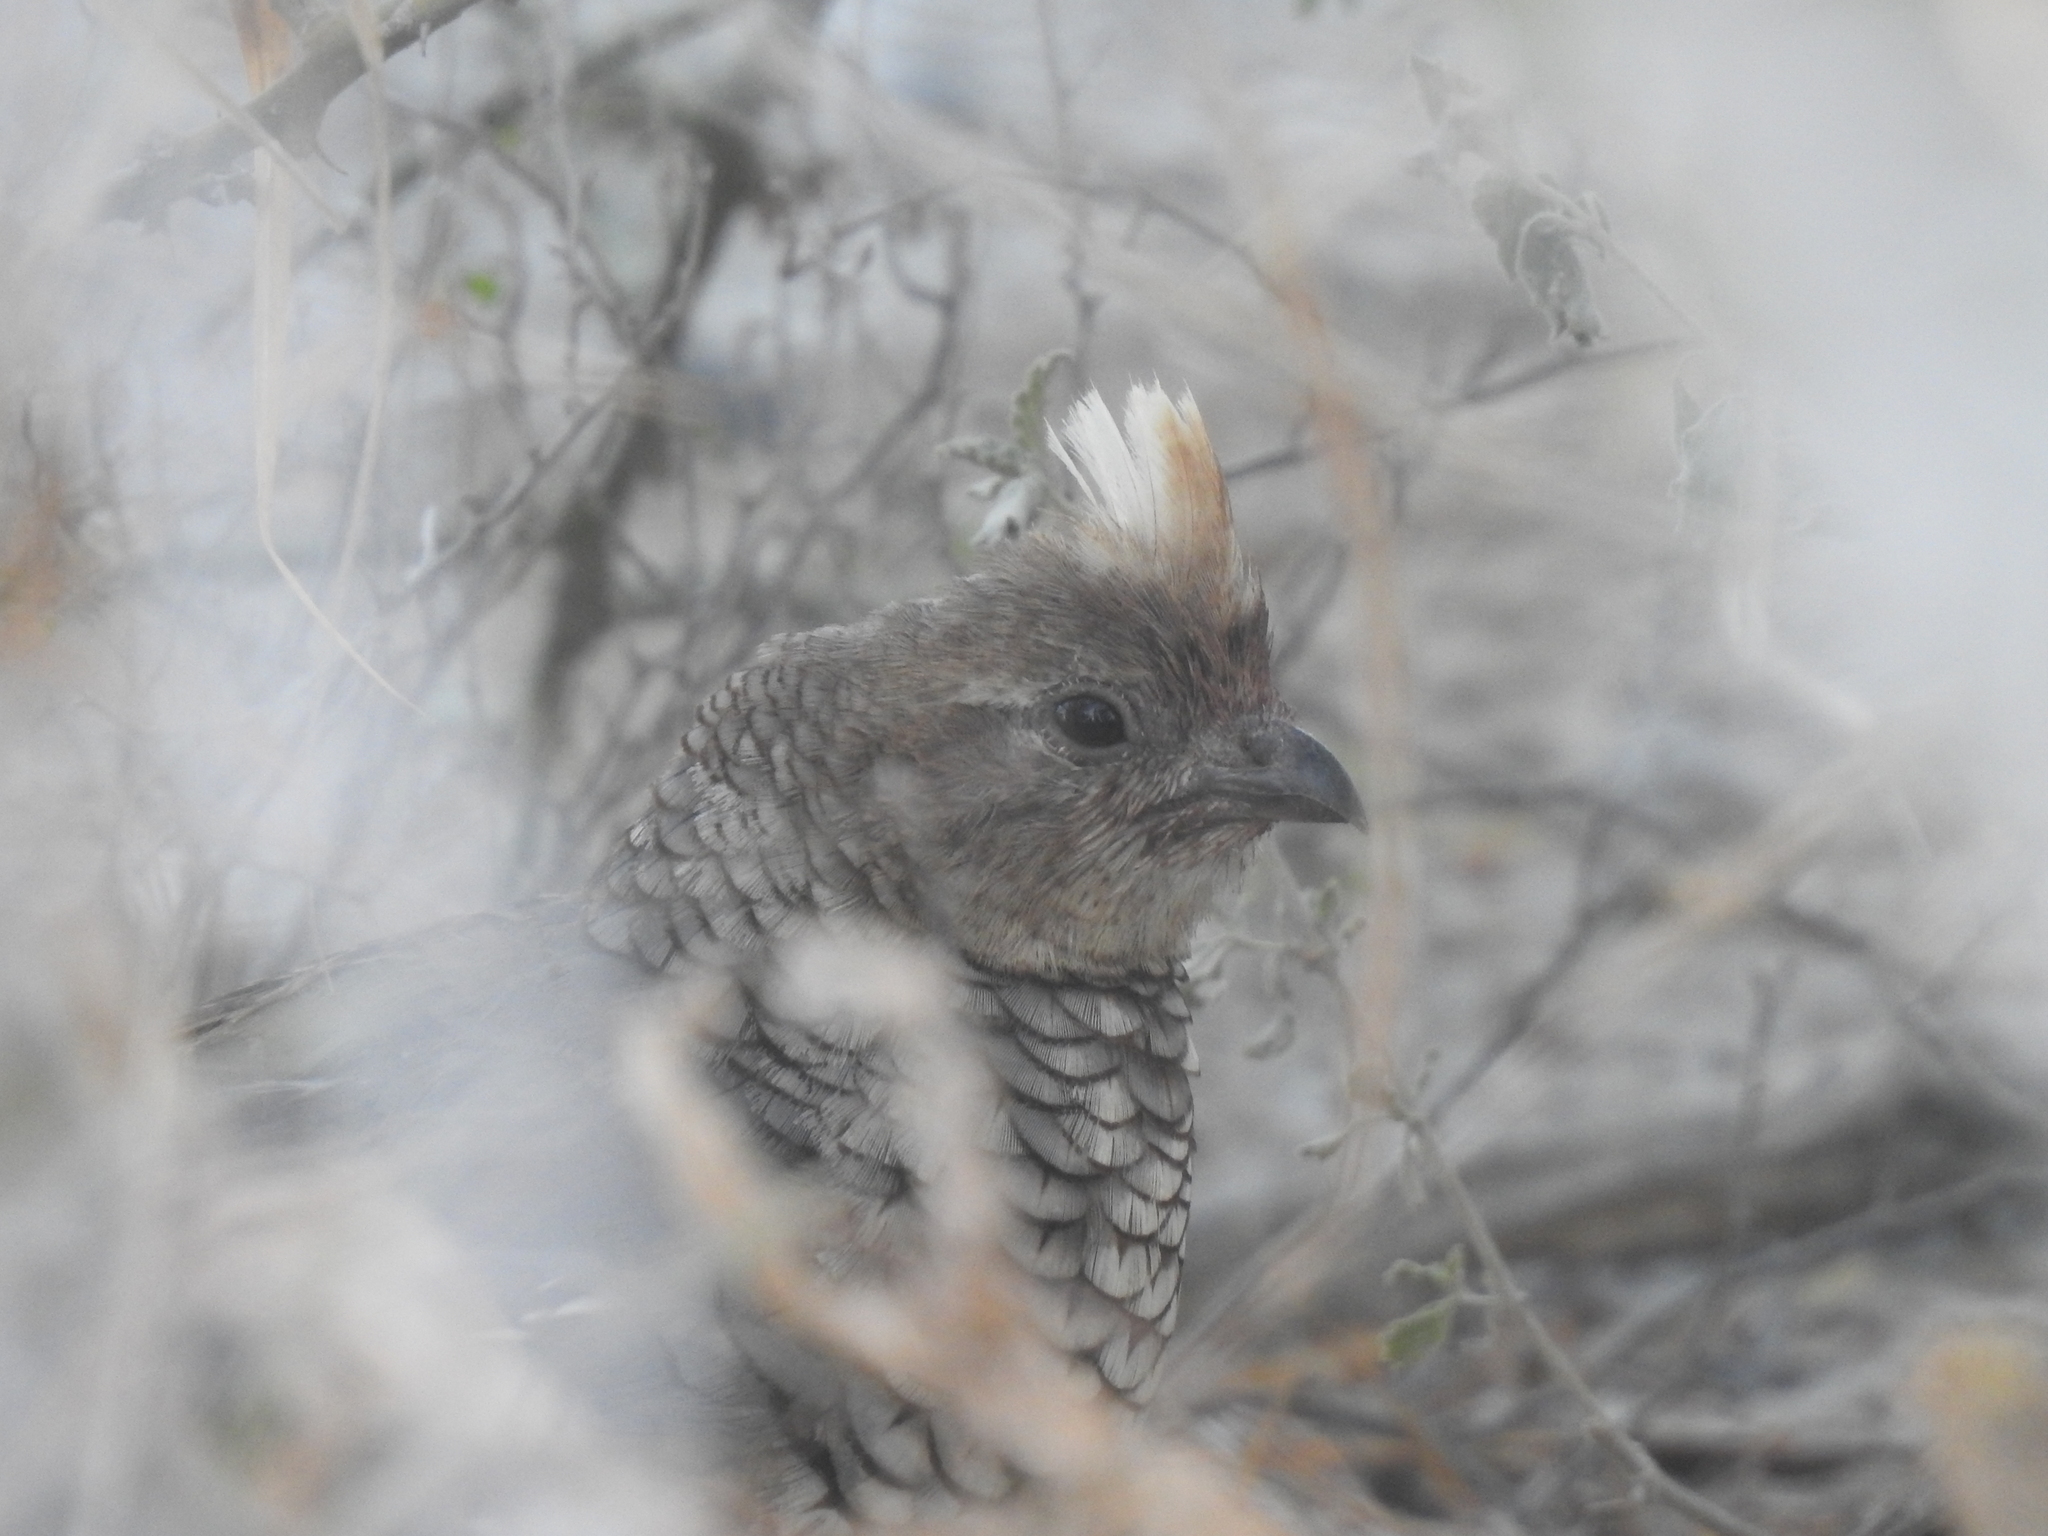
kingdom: Animalia
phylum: Chordata
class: Aves
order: Galliformes
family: Odontophoridae
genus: Callipepla
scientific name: Callipepla squamata
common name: Scaled quail
